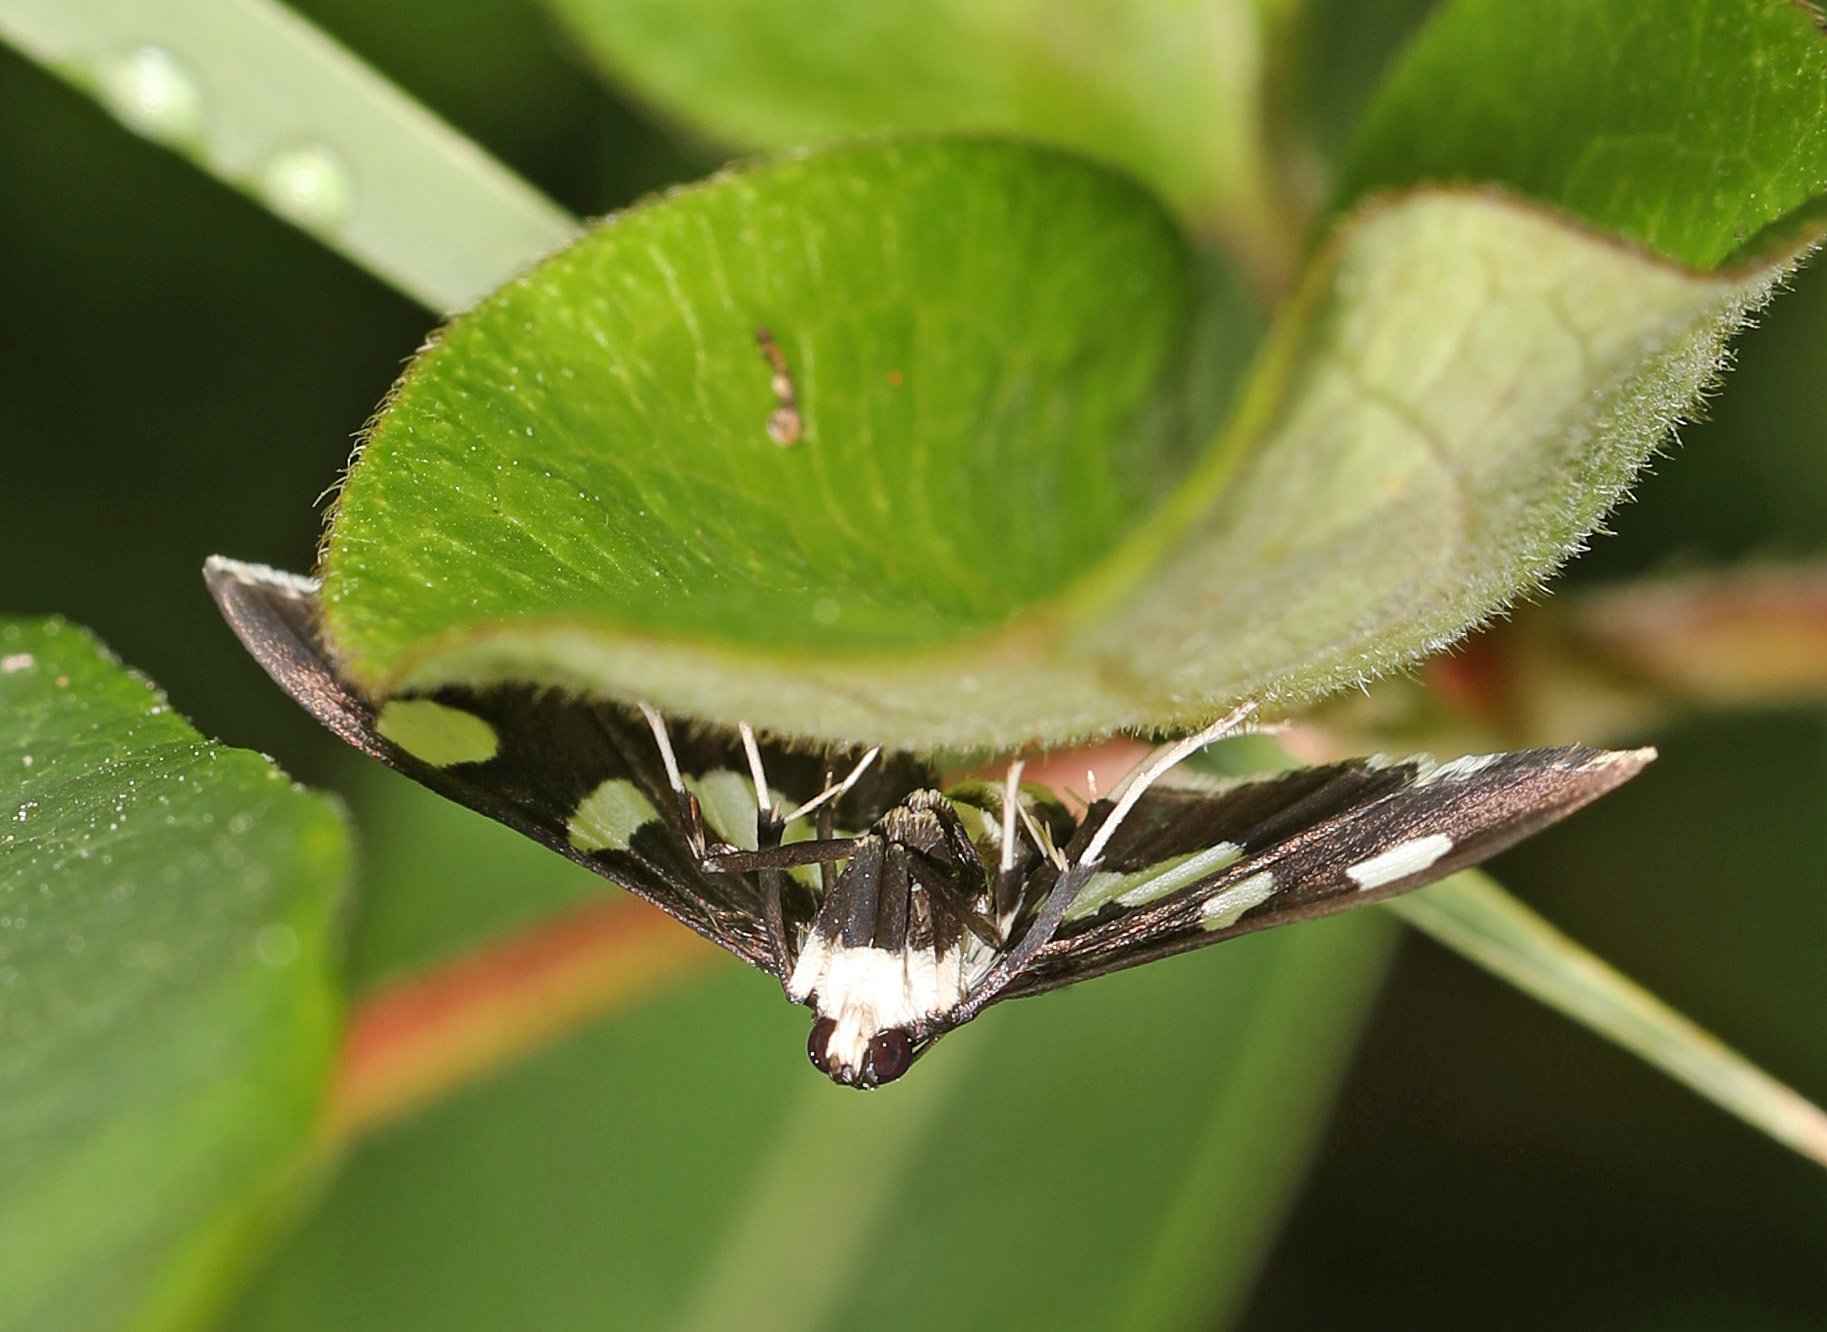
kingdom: Animalia
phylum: Arthropoda
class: Insecta
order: Lepidoptera
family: Crambidae
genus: Desmia
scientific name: Desmia
